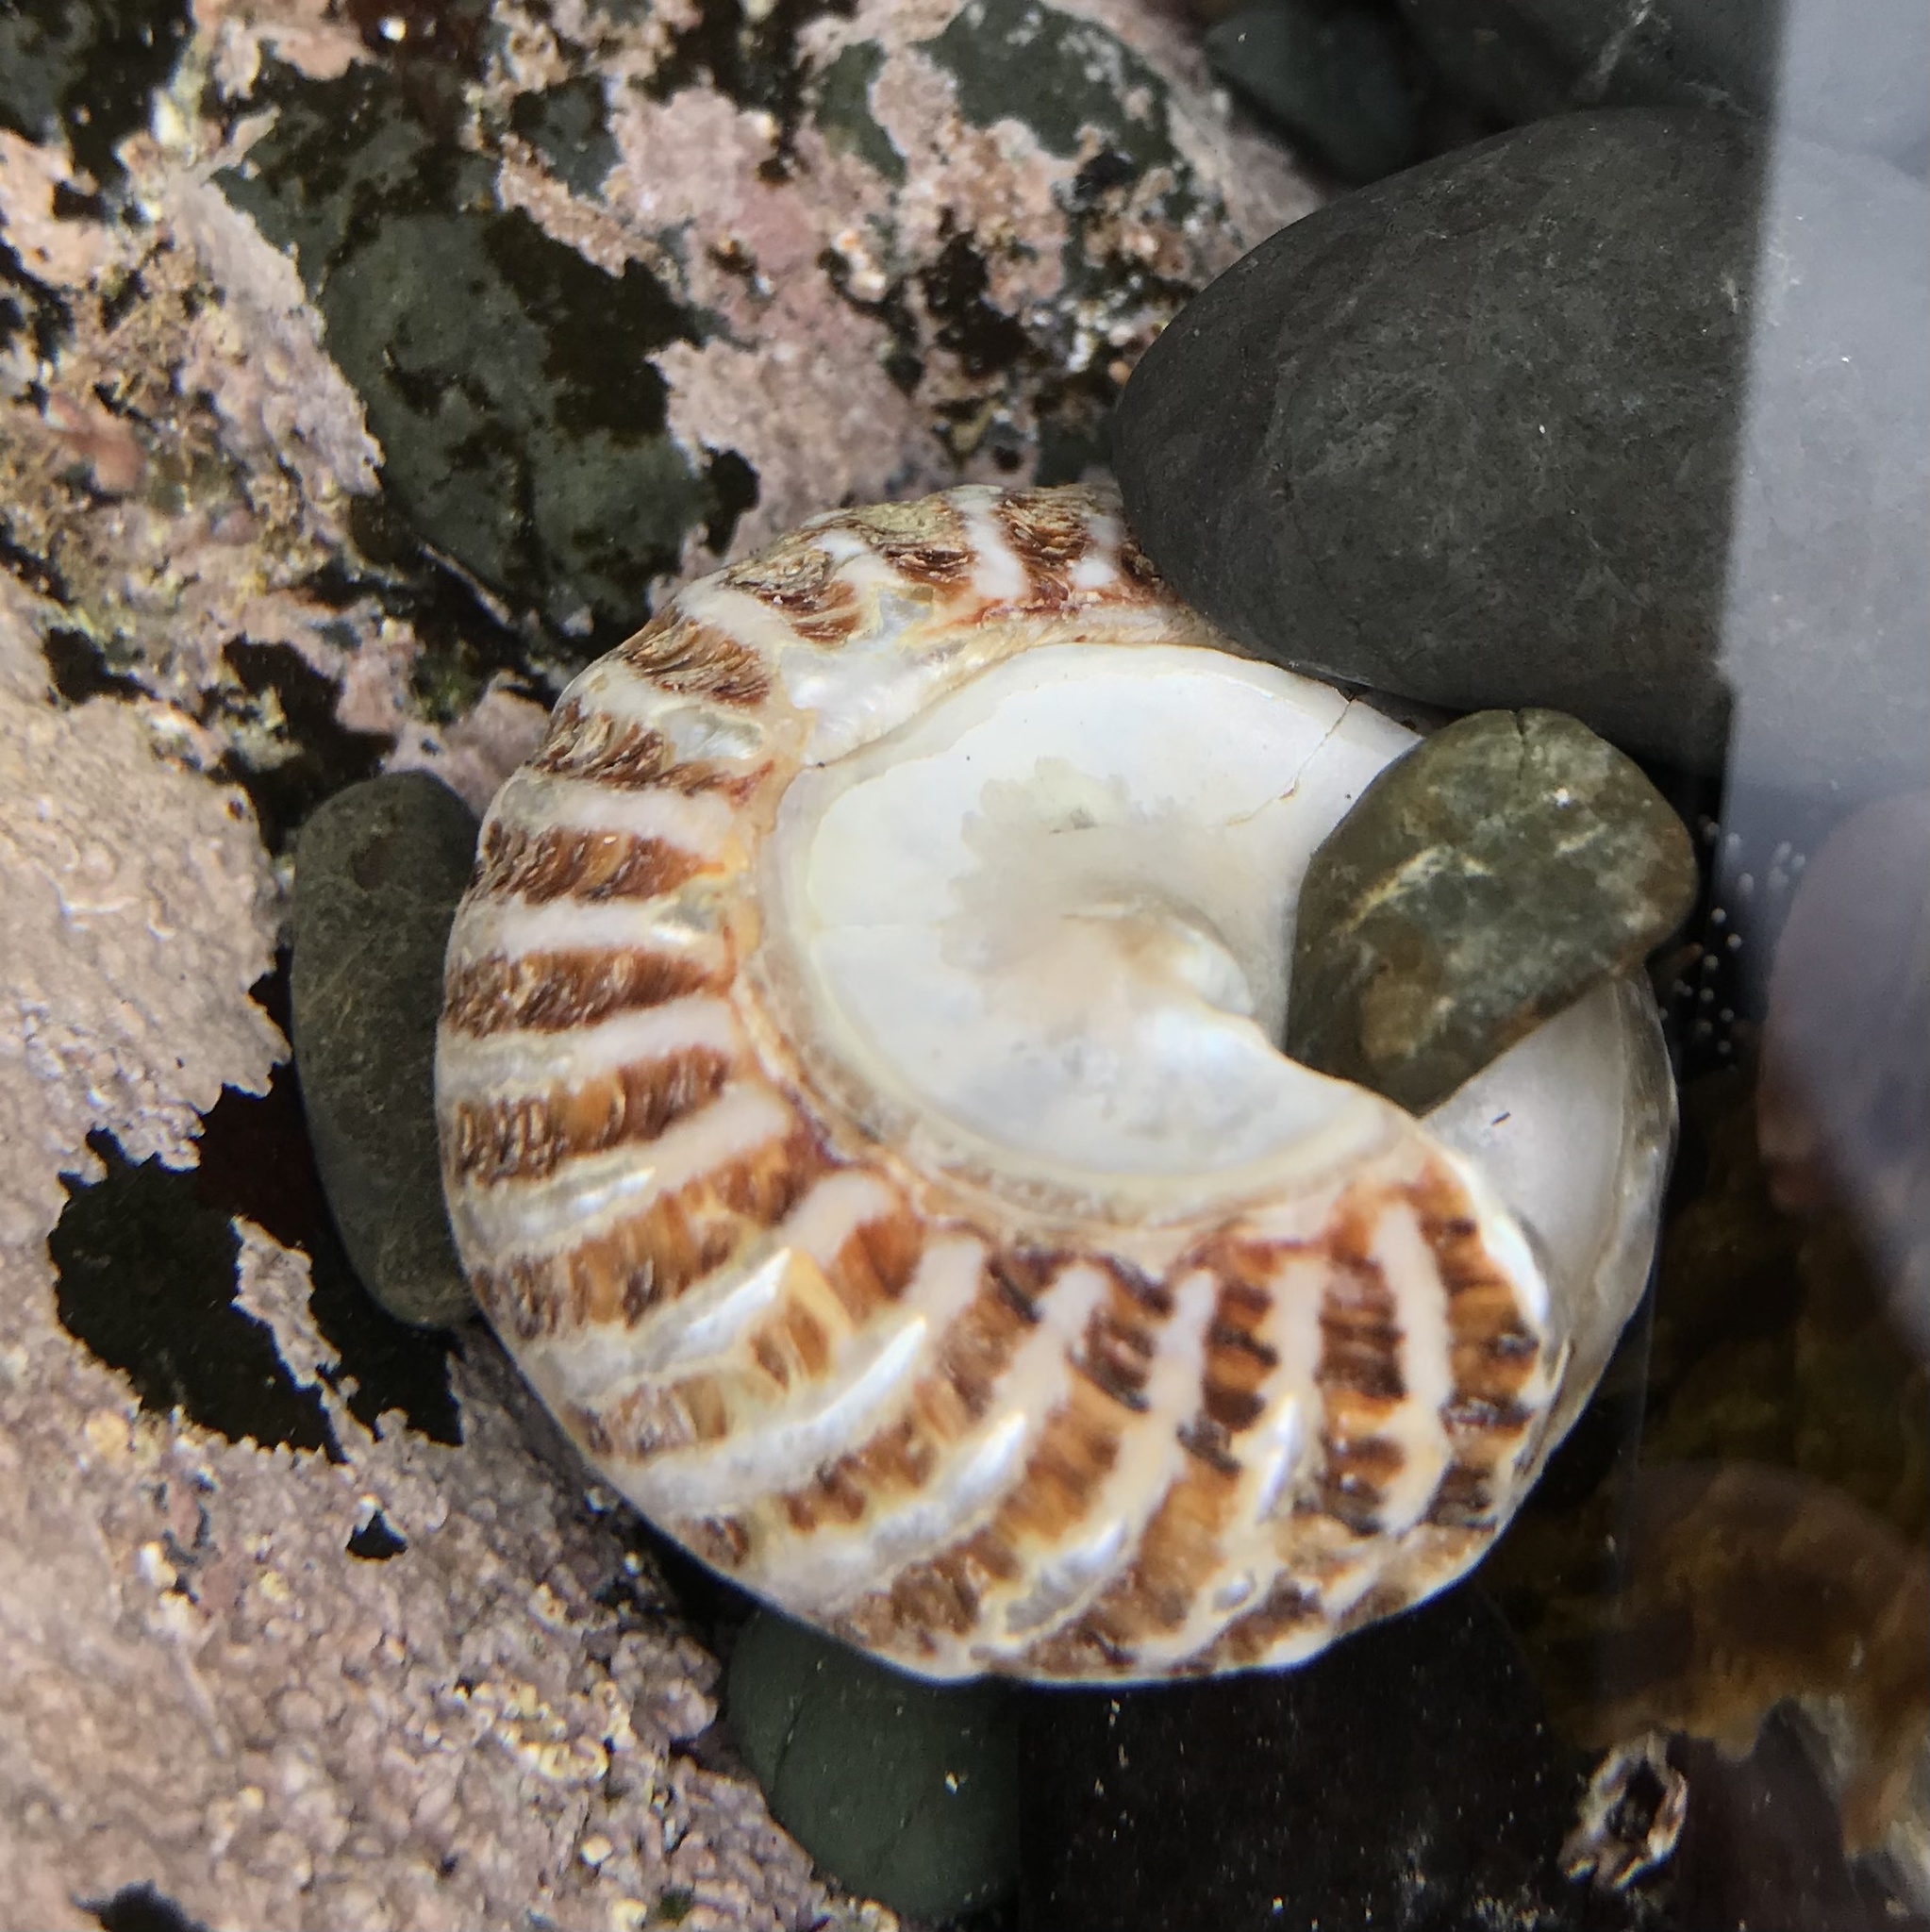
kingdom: Animalia
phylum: Mollusca
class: Gastropoda
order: Trochida
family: Turbinidae
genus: Cookia
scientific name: Cookia sulcata
